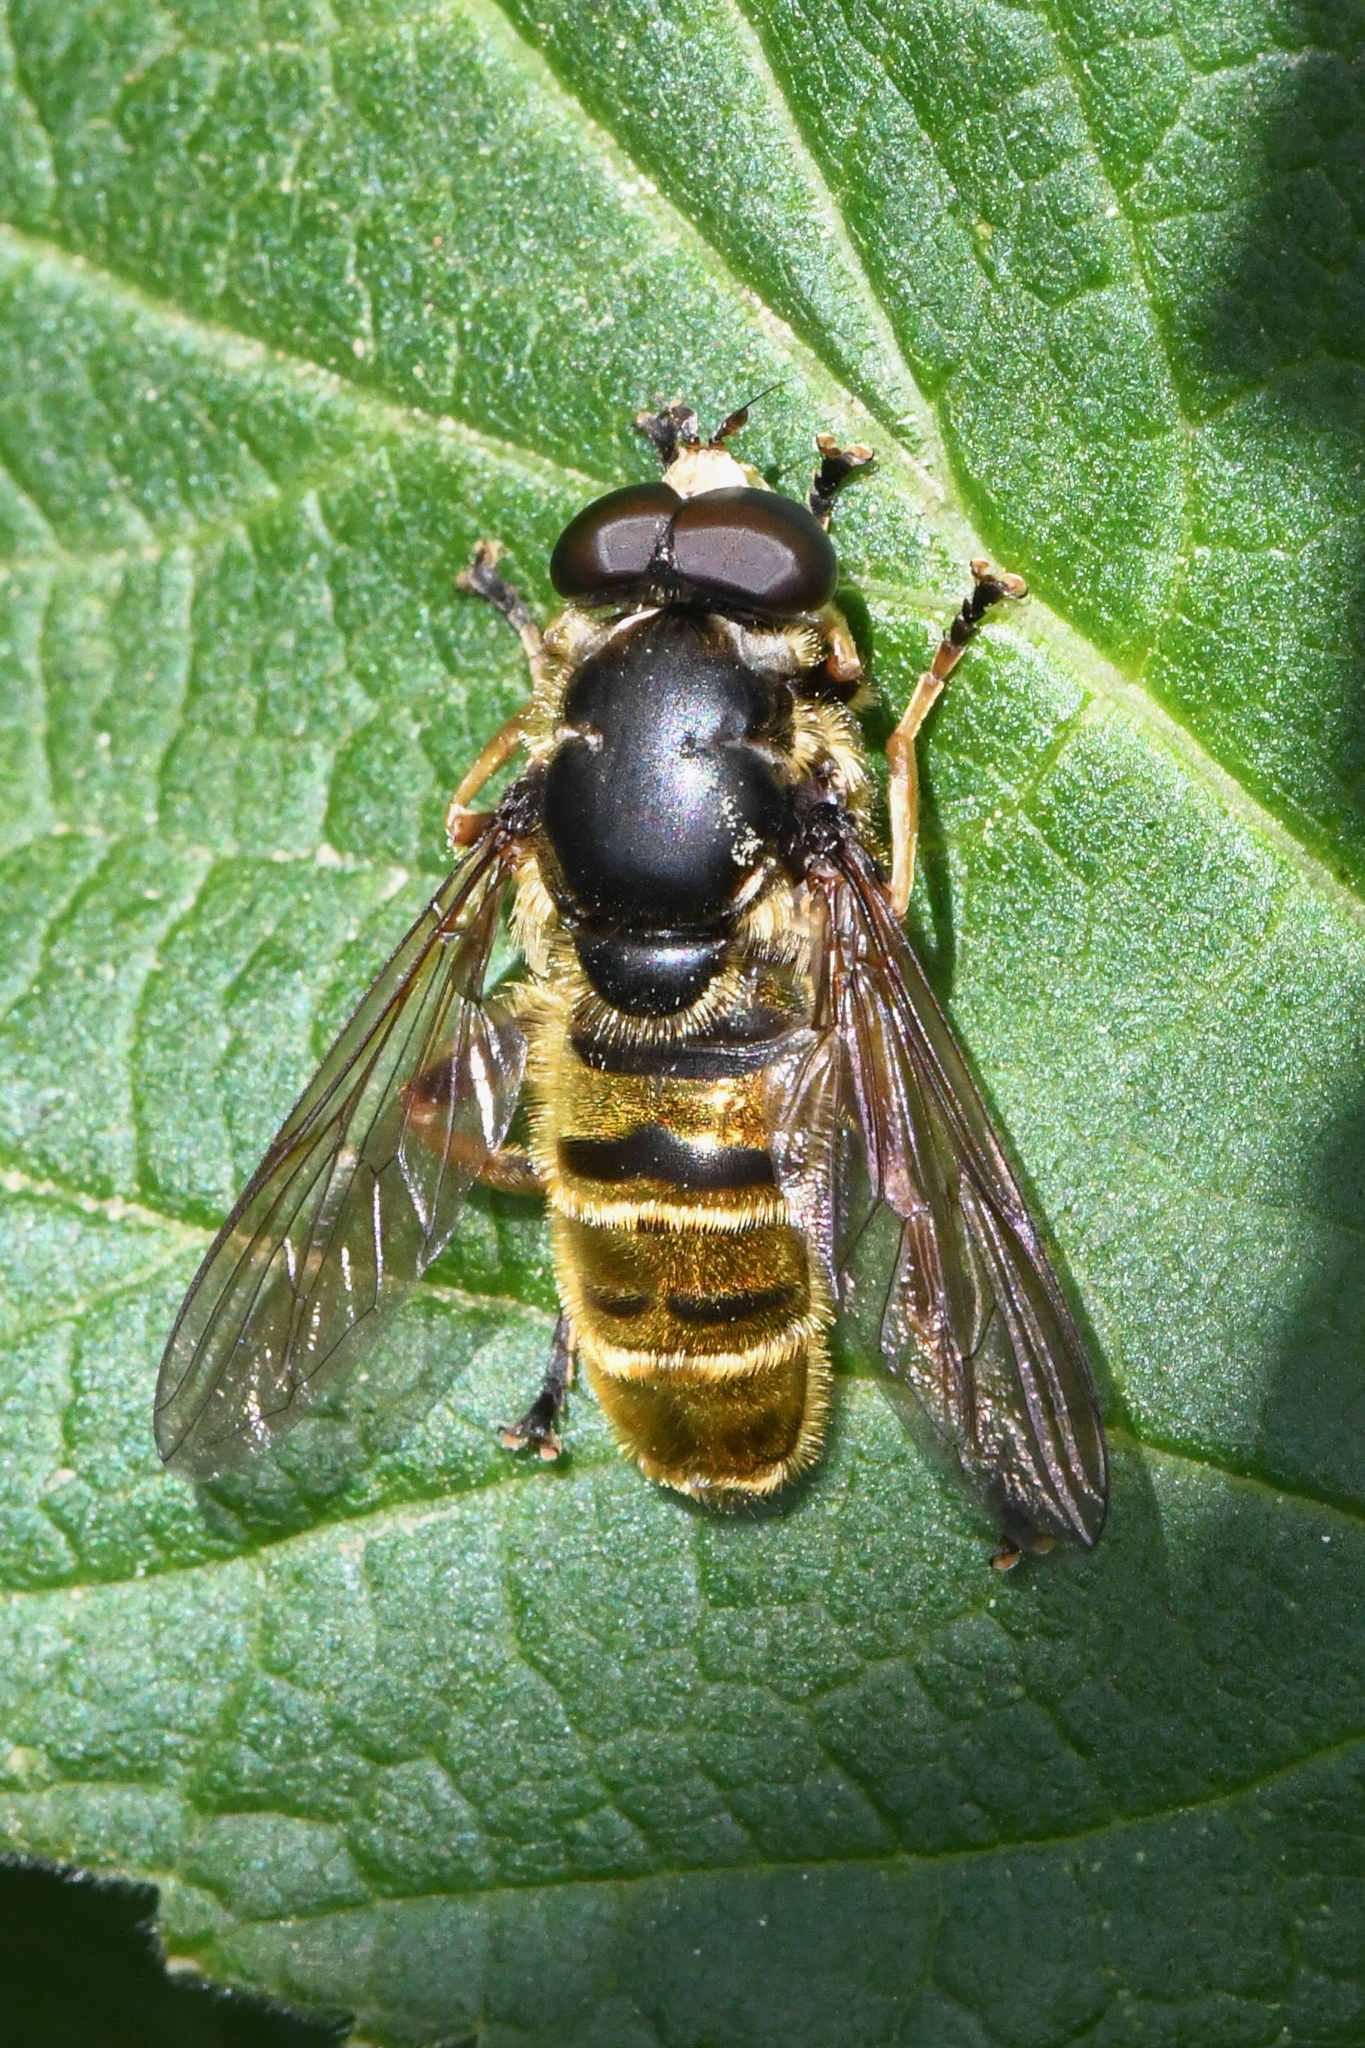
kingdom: Animalia
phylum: Arthropoda
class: Insecta
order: Diptera
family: Syrphidae
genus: Hadromyia
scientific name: Hadromyia pulchra
